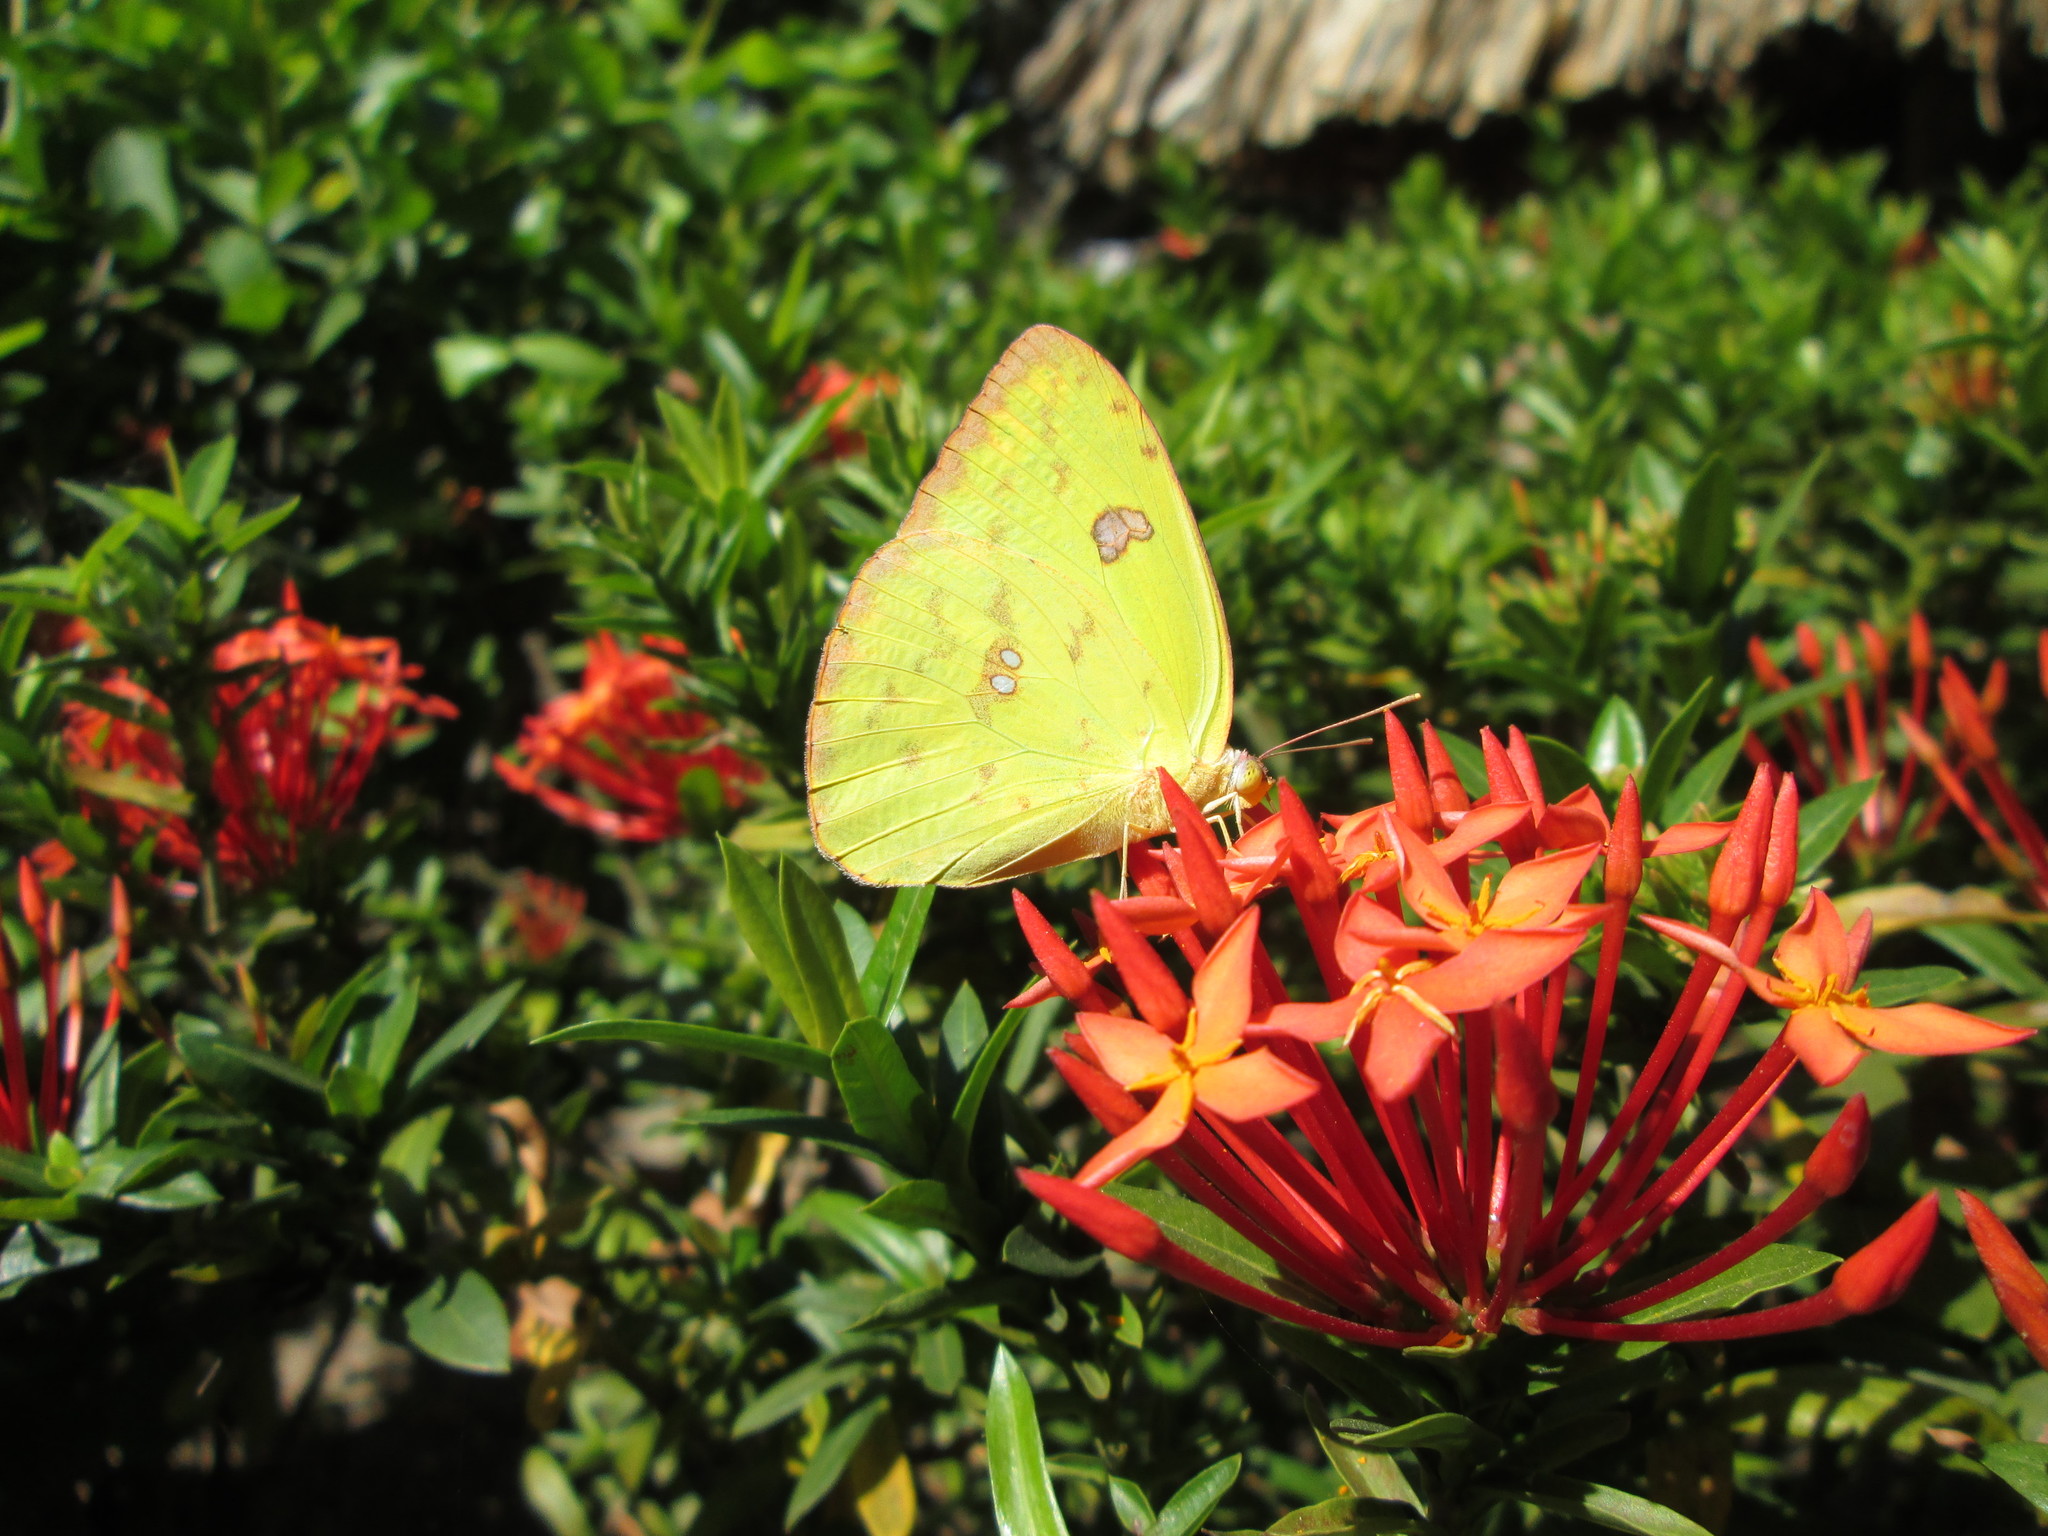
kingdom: Animalia
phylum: Arthropoda
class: Insecta
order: Lepidoptera
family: Pieridae
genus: Phoebis
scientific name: Phoebis sennae
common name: Cloudless sulphur
